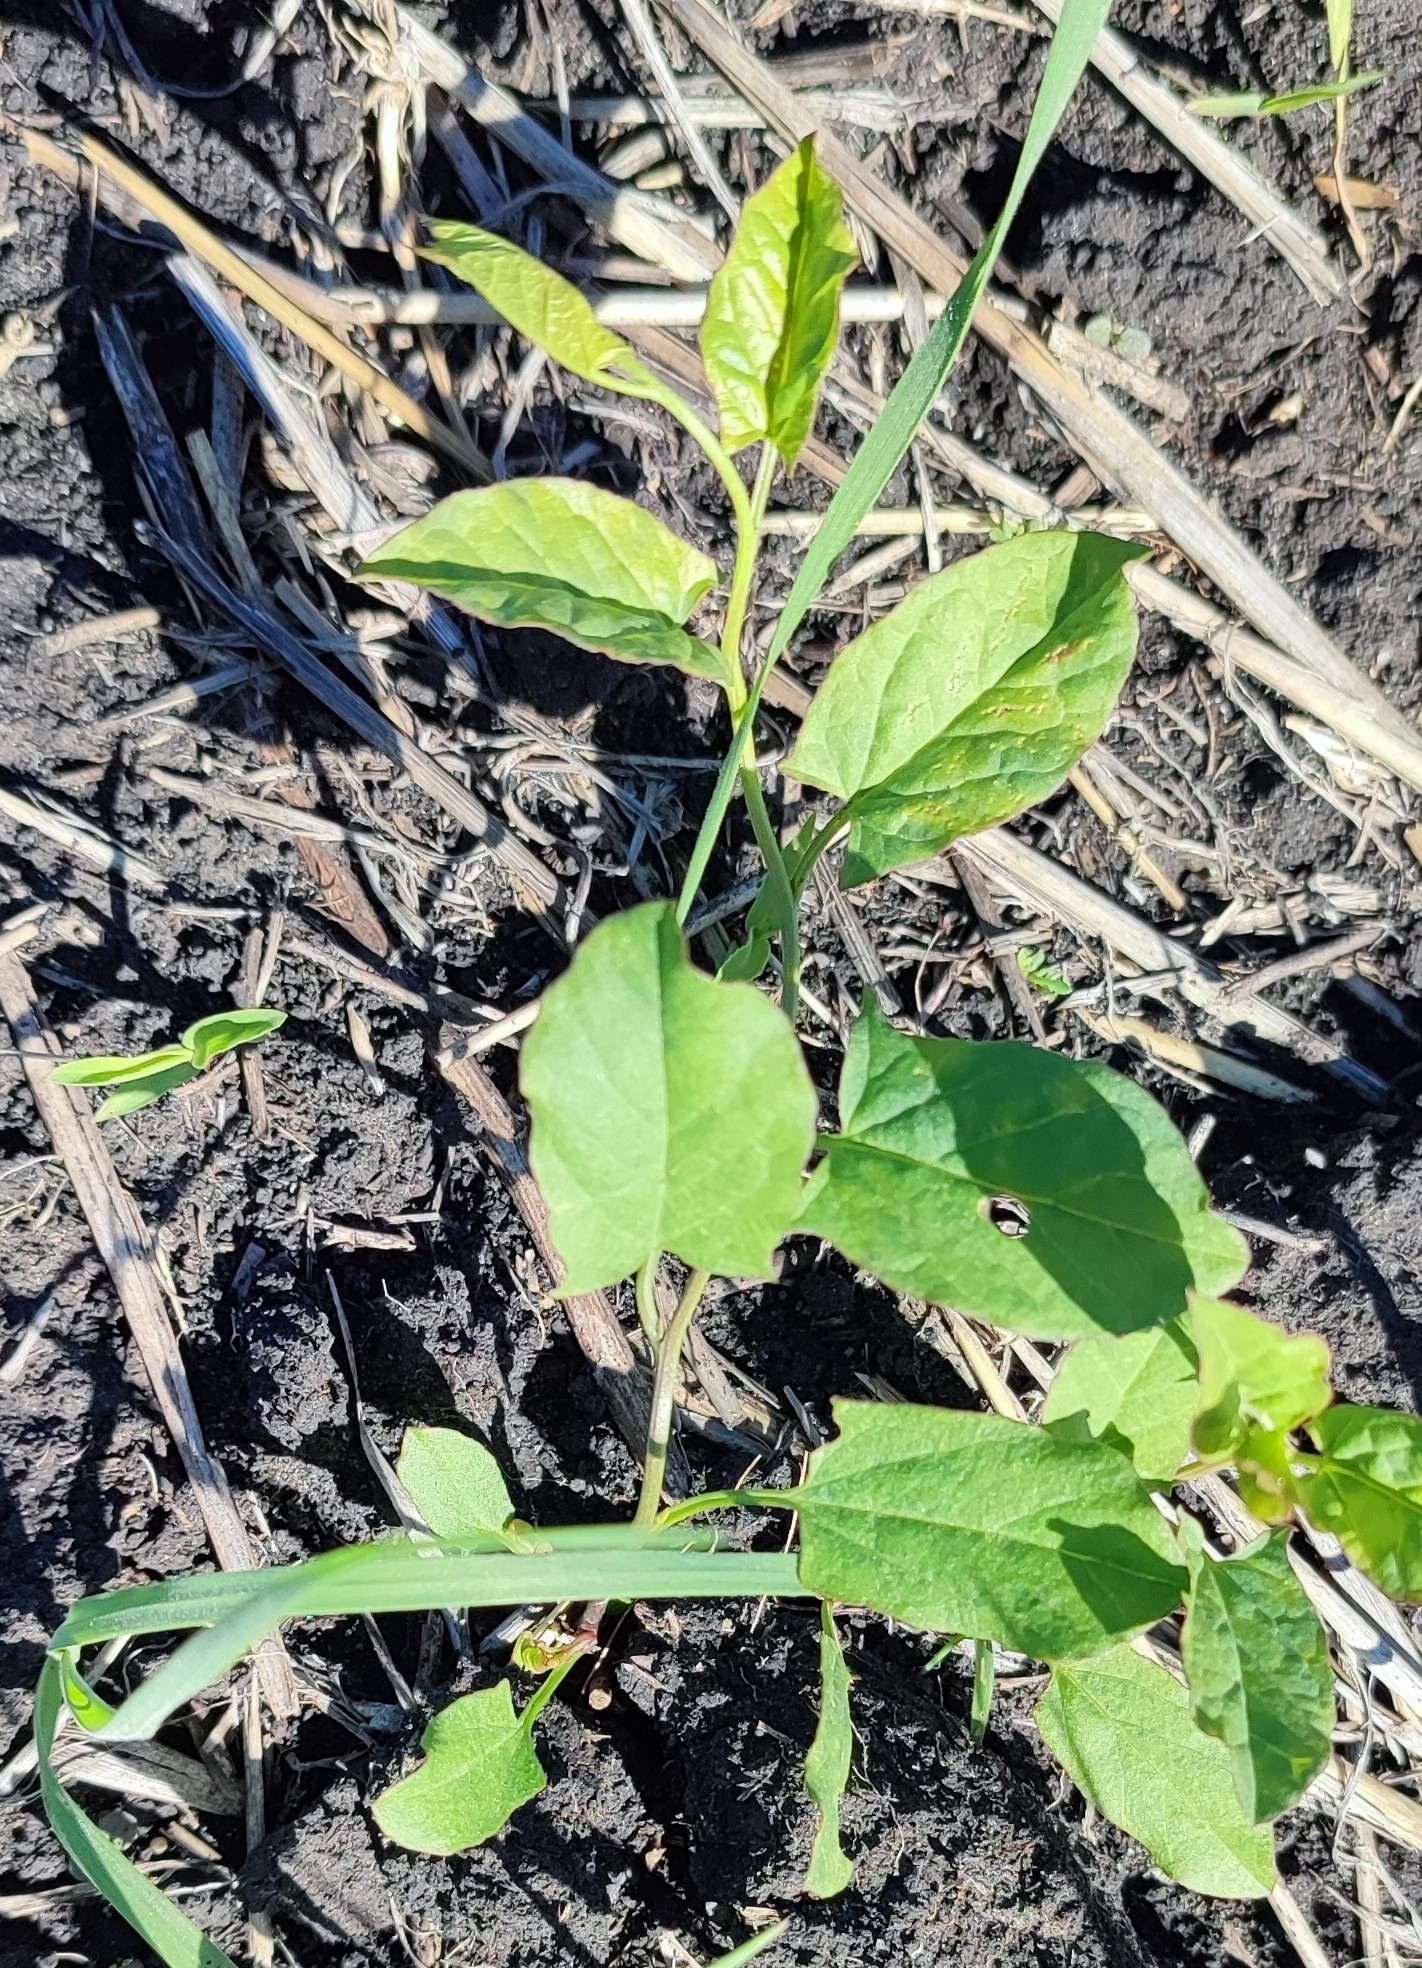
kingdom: Plantae
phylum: Tracheophyta
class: Magnoliopsida
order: Solanales
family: Convolvulaceae
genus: Convolvulus
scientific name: Convolvulus arvensis
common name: Field bindweed
